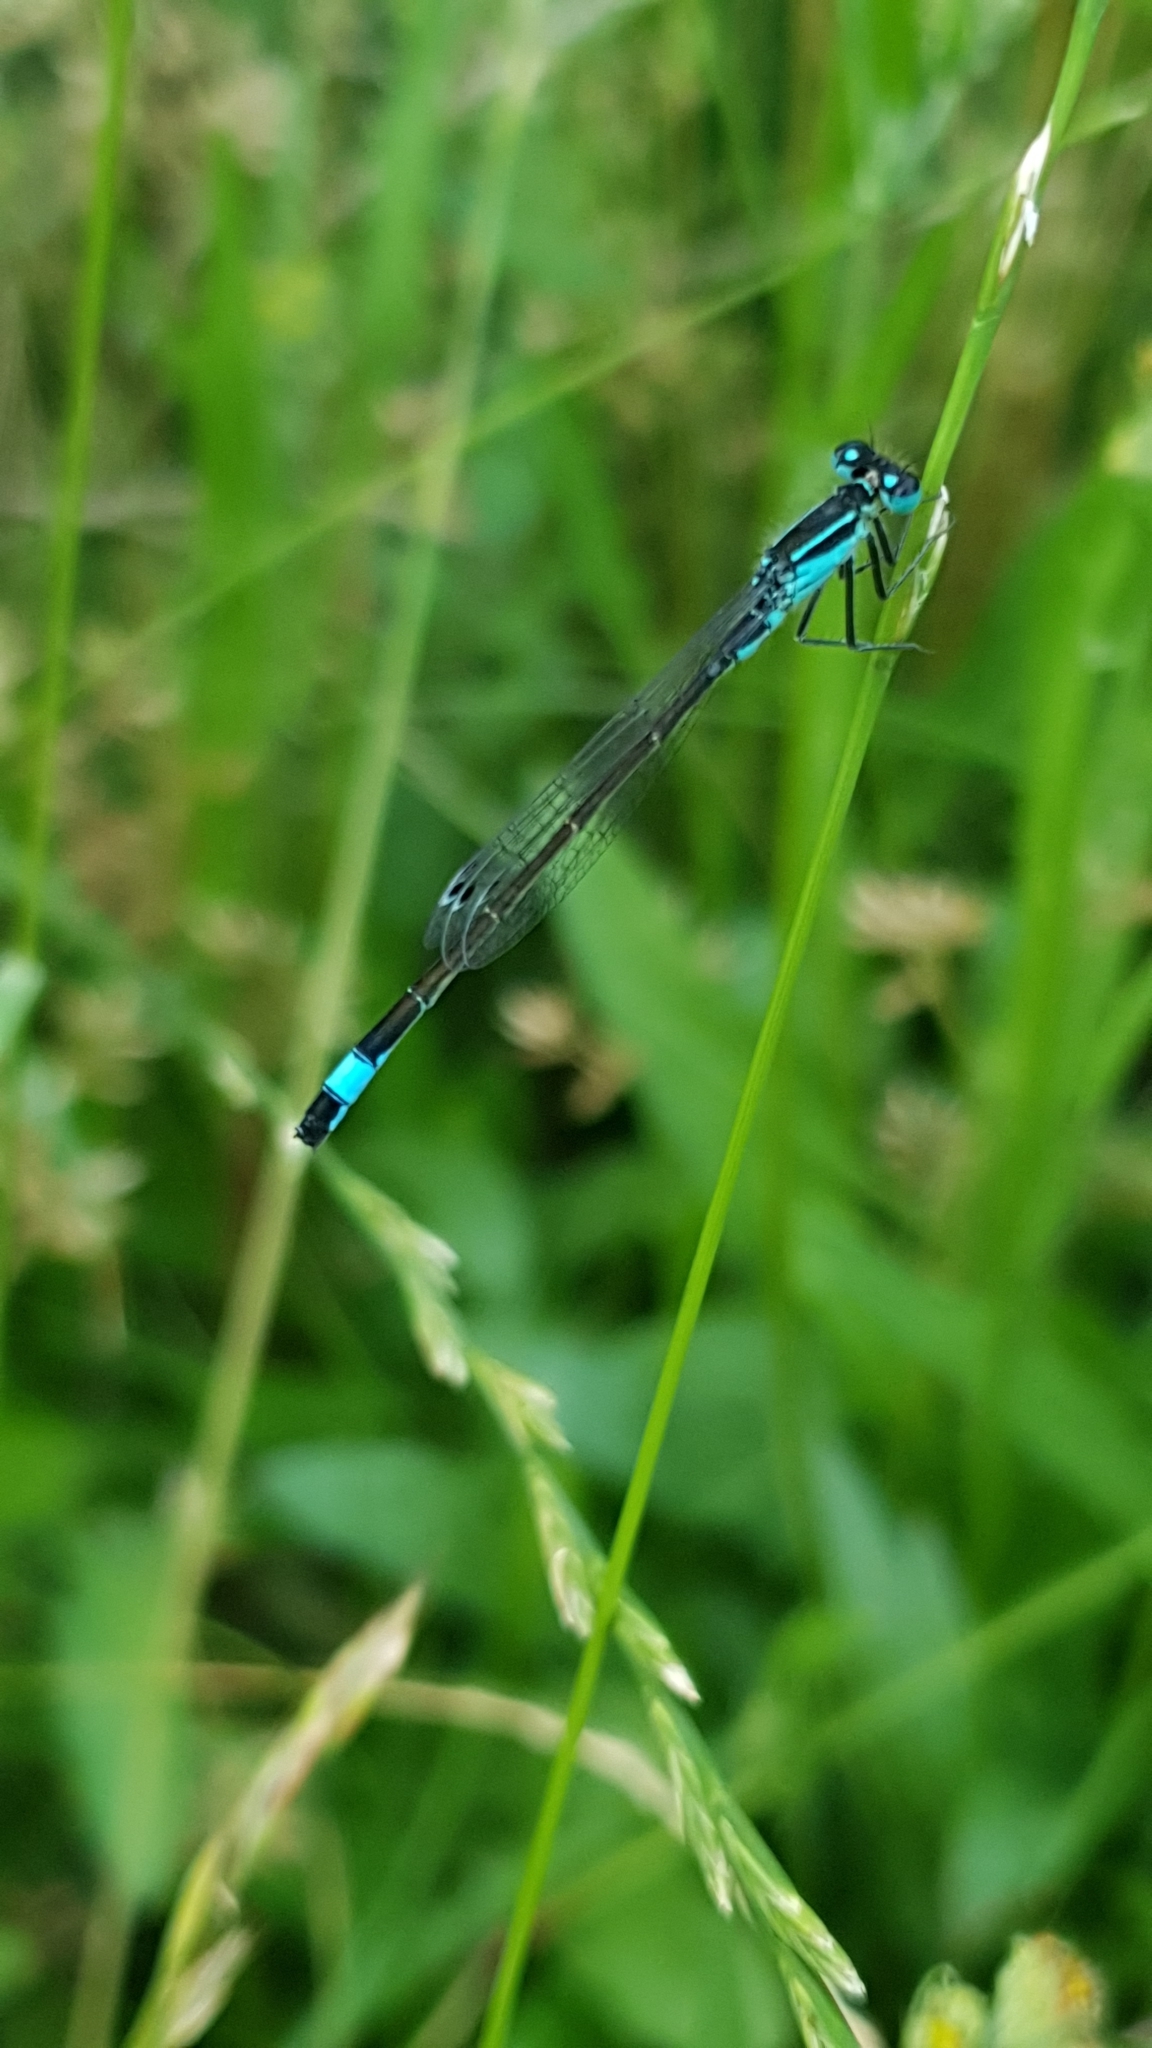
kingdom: Animalia
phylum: Arthropoda
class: Insecta
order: Odonata
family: Coenagrionidae
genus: Ischnura
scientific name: Ischnura elegans
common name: Blue-tailed damselfly
